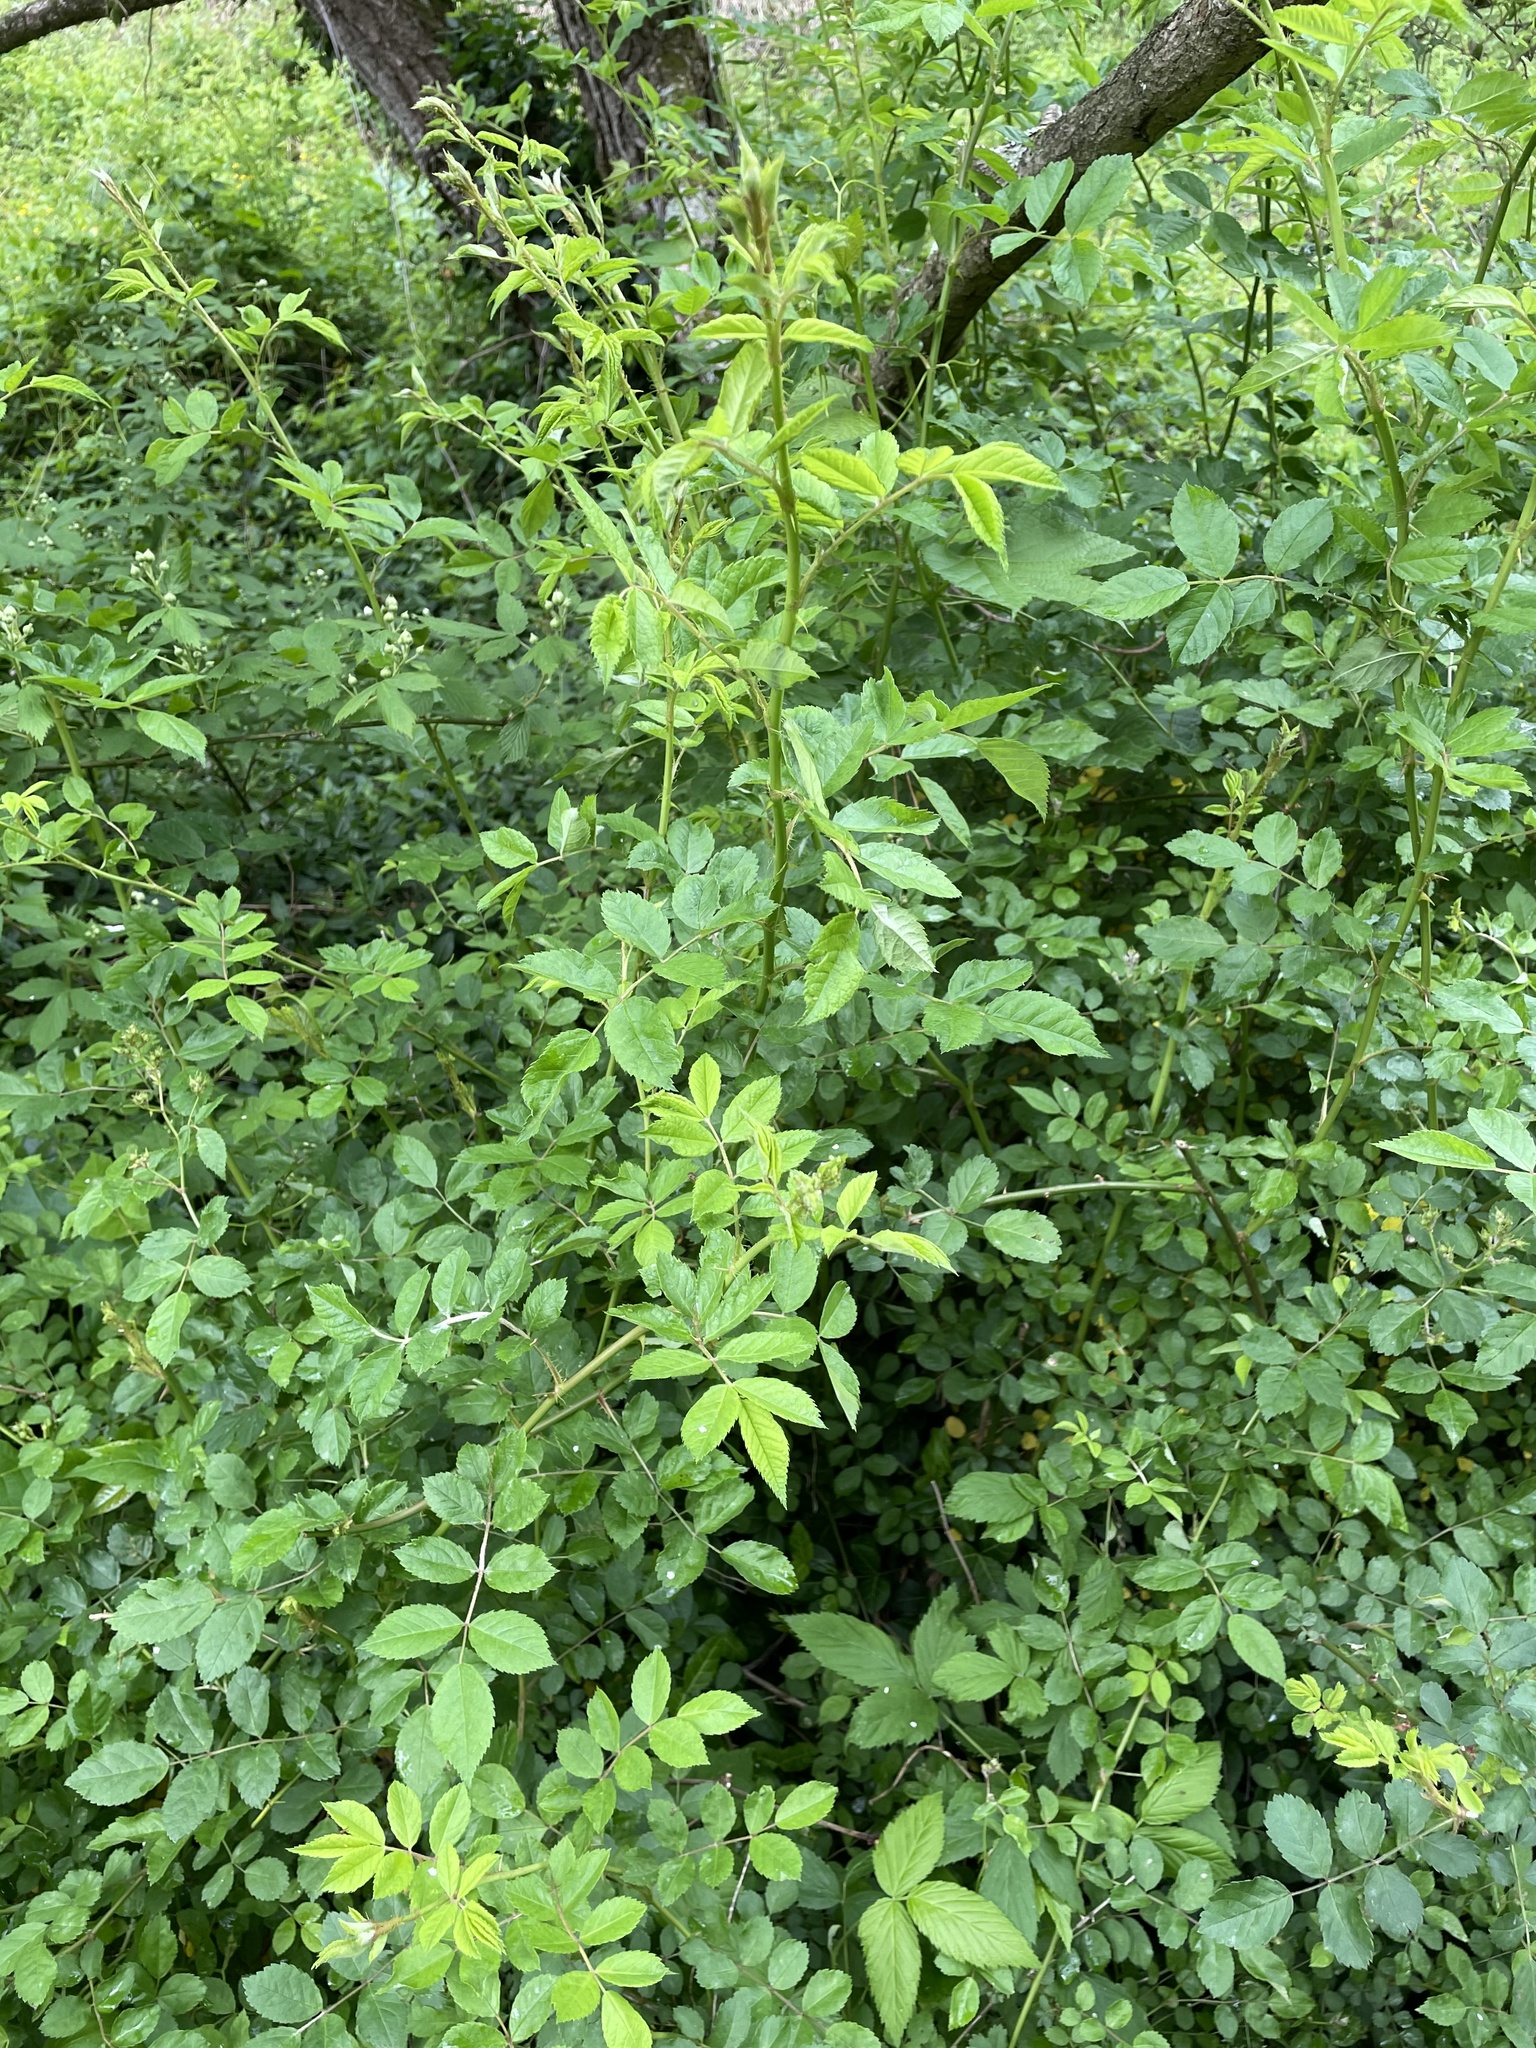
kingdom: Plantae
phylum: Tracheophyta
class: Magnoliopsida
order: Rosales
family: Rosaceae
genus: Rosa
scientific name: Rosa multiflora
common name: Multiflora rose
